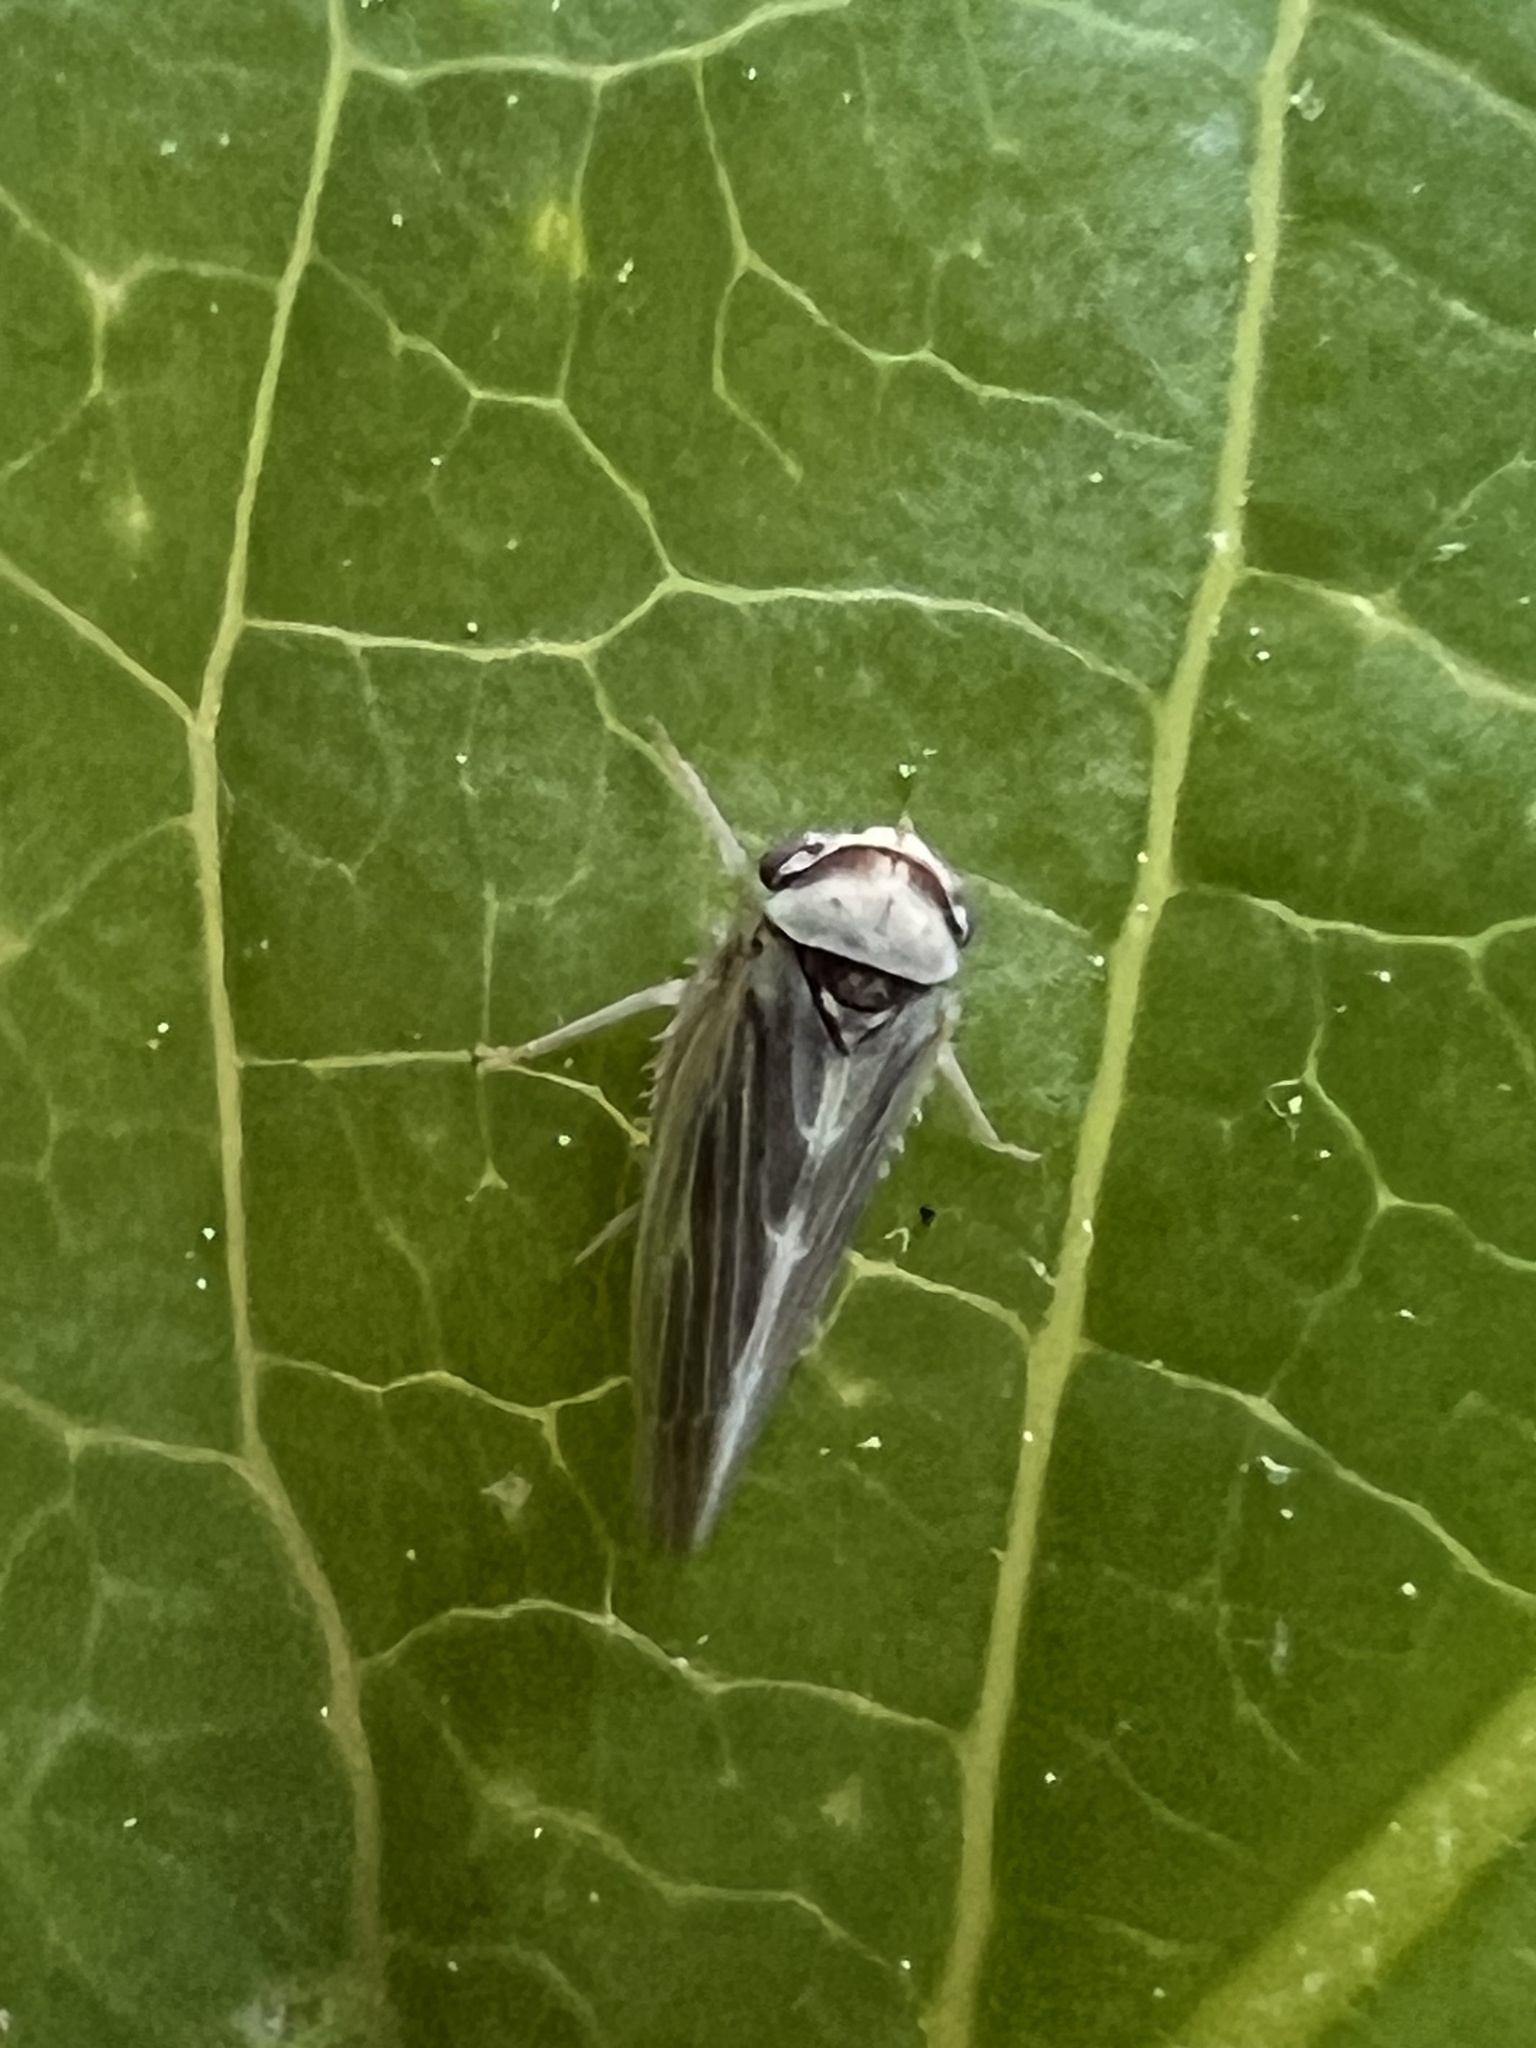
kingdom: Animalia
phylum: Arthropoda
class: Insecta
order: Hemiptera
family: Cicadellidae
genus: Agalliopsis
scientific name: Agalliopsis ancistra
